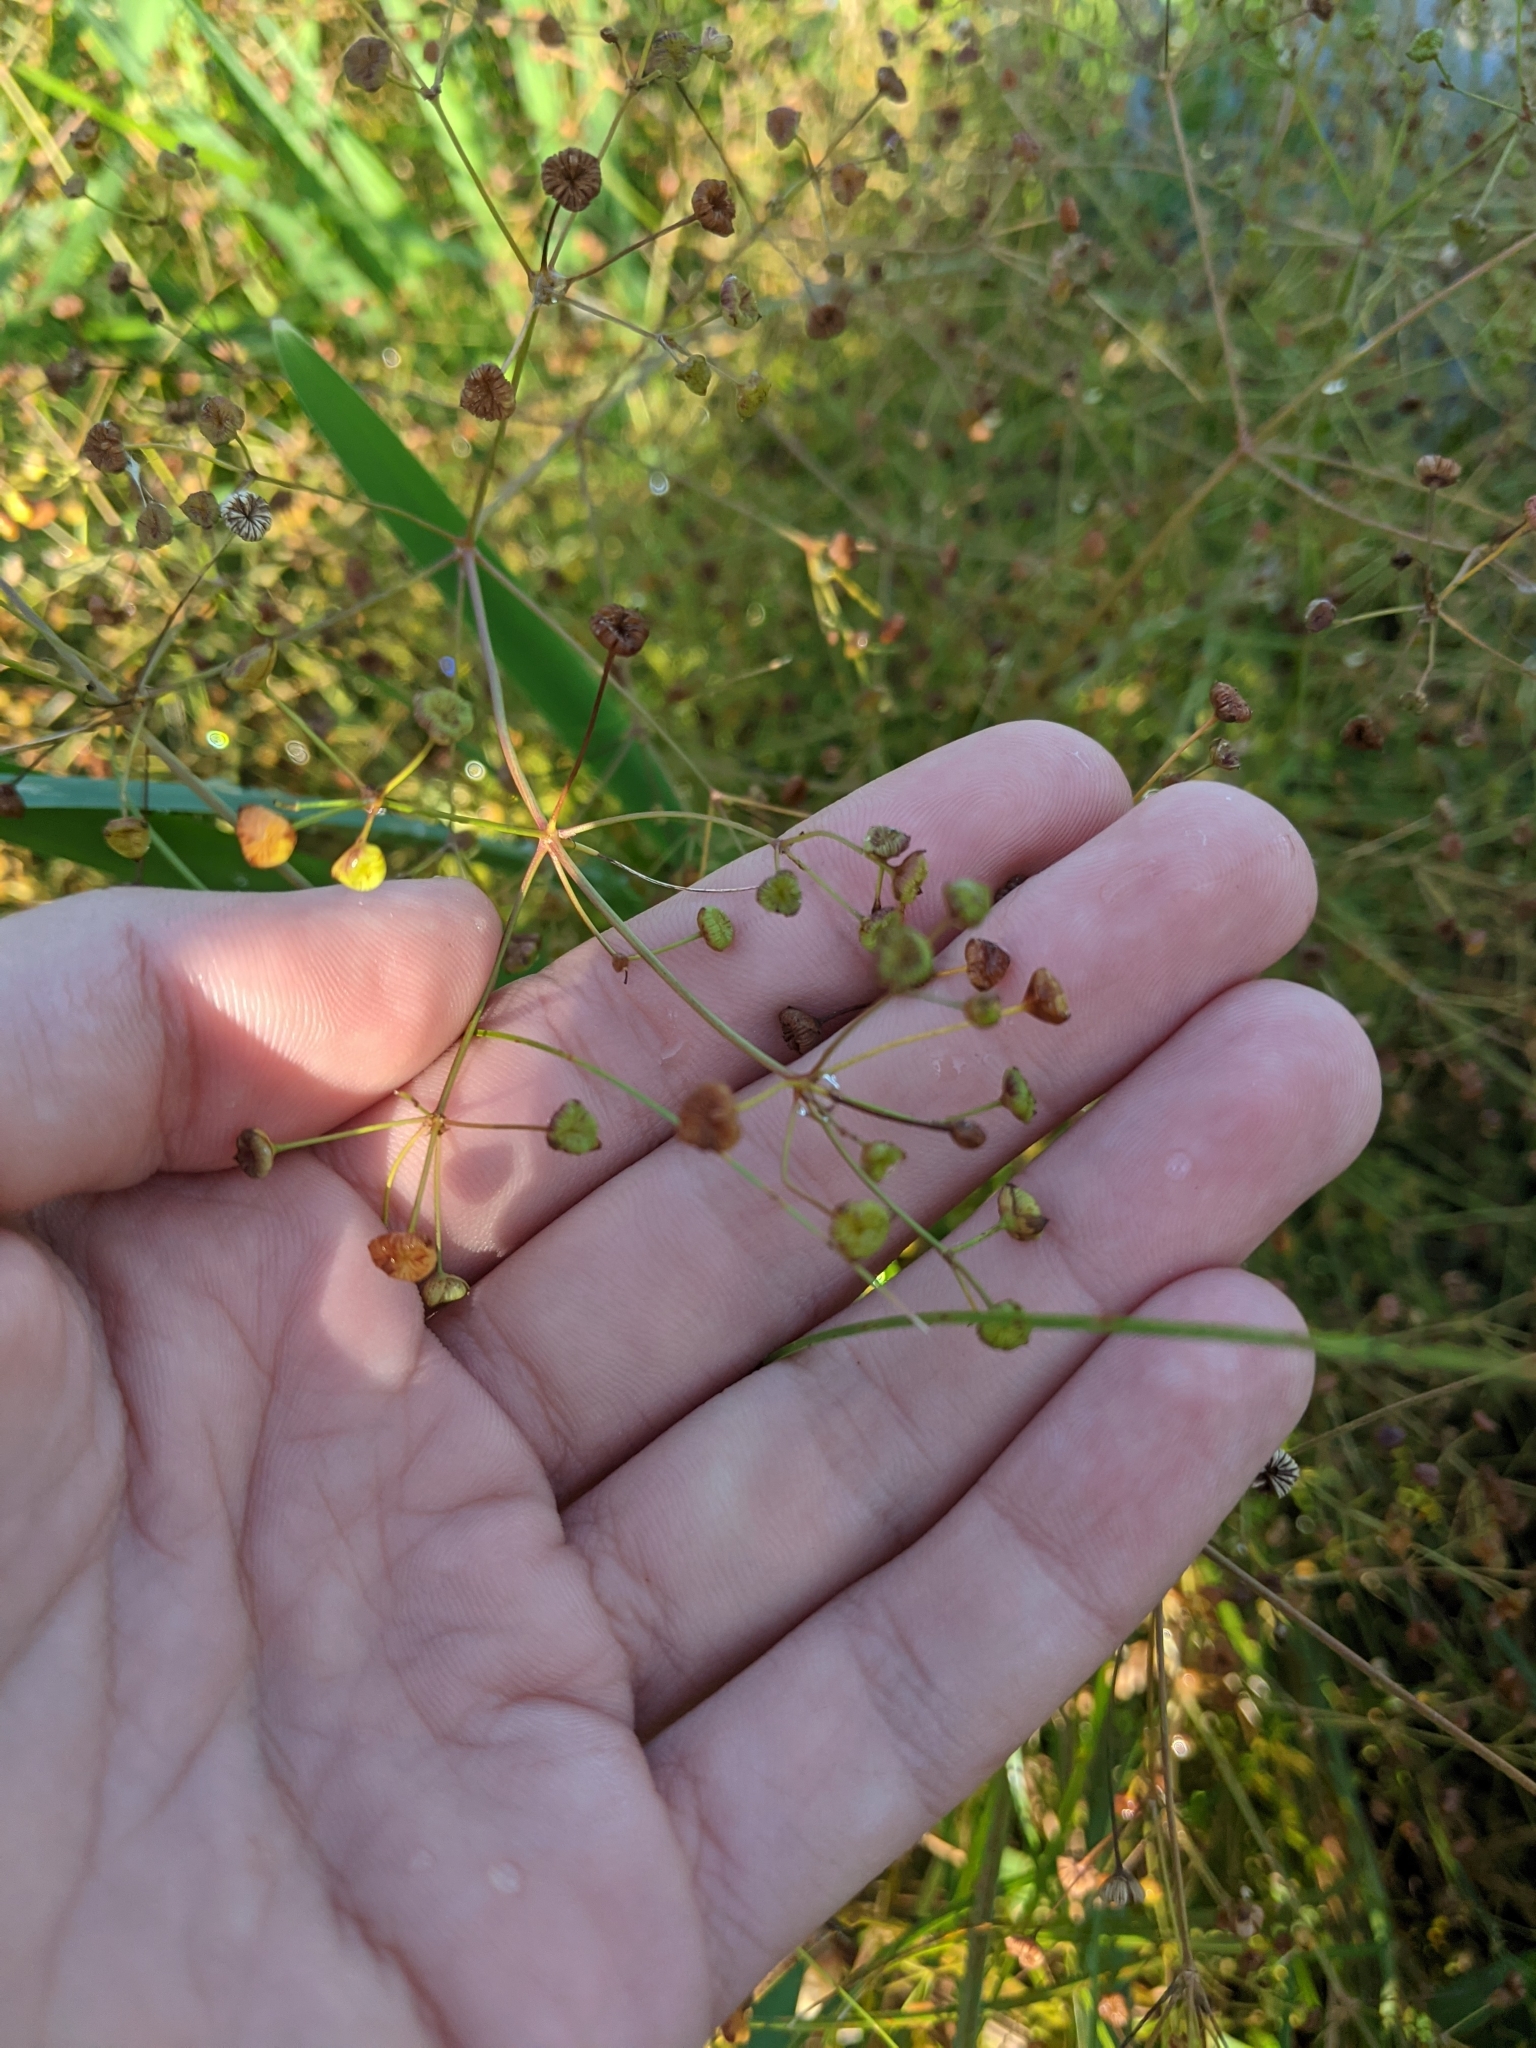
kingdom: Plantae
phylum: Tracheophyta
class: Liliopsida
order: Alismatales
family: Alismataceae
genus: Alisma
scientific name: Alisma
